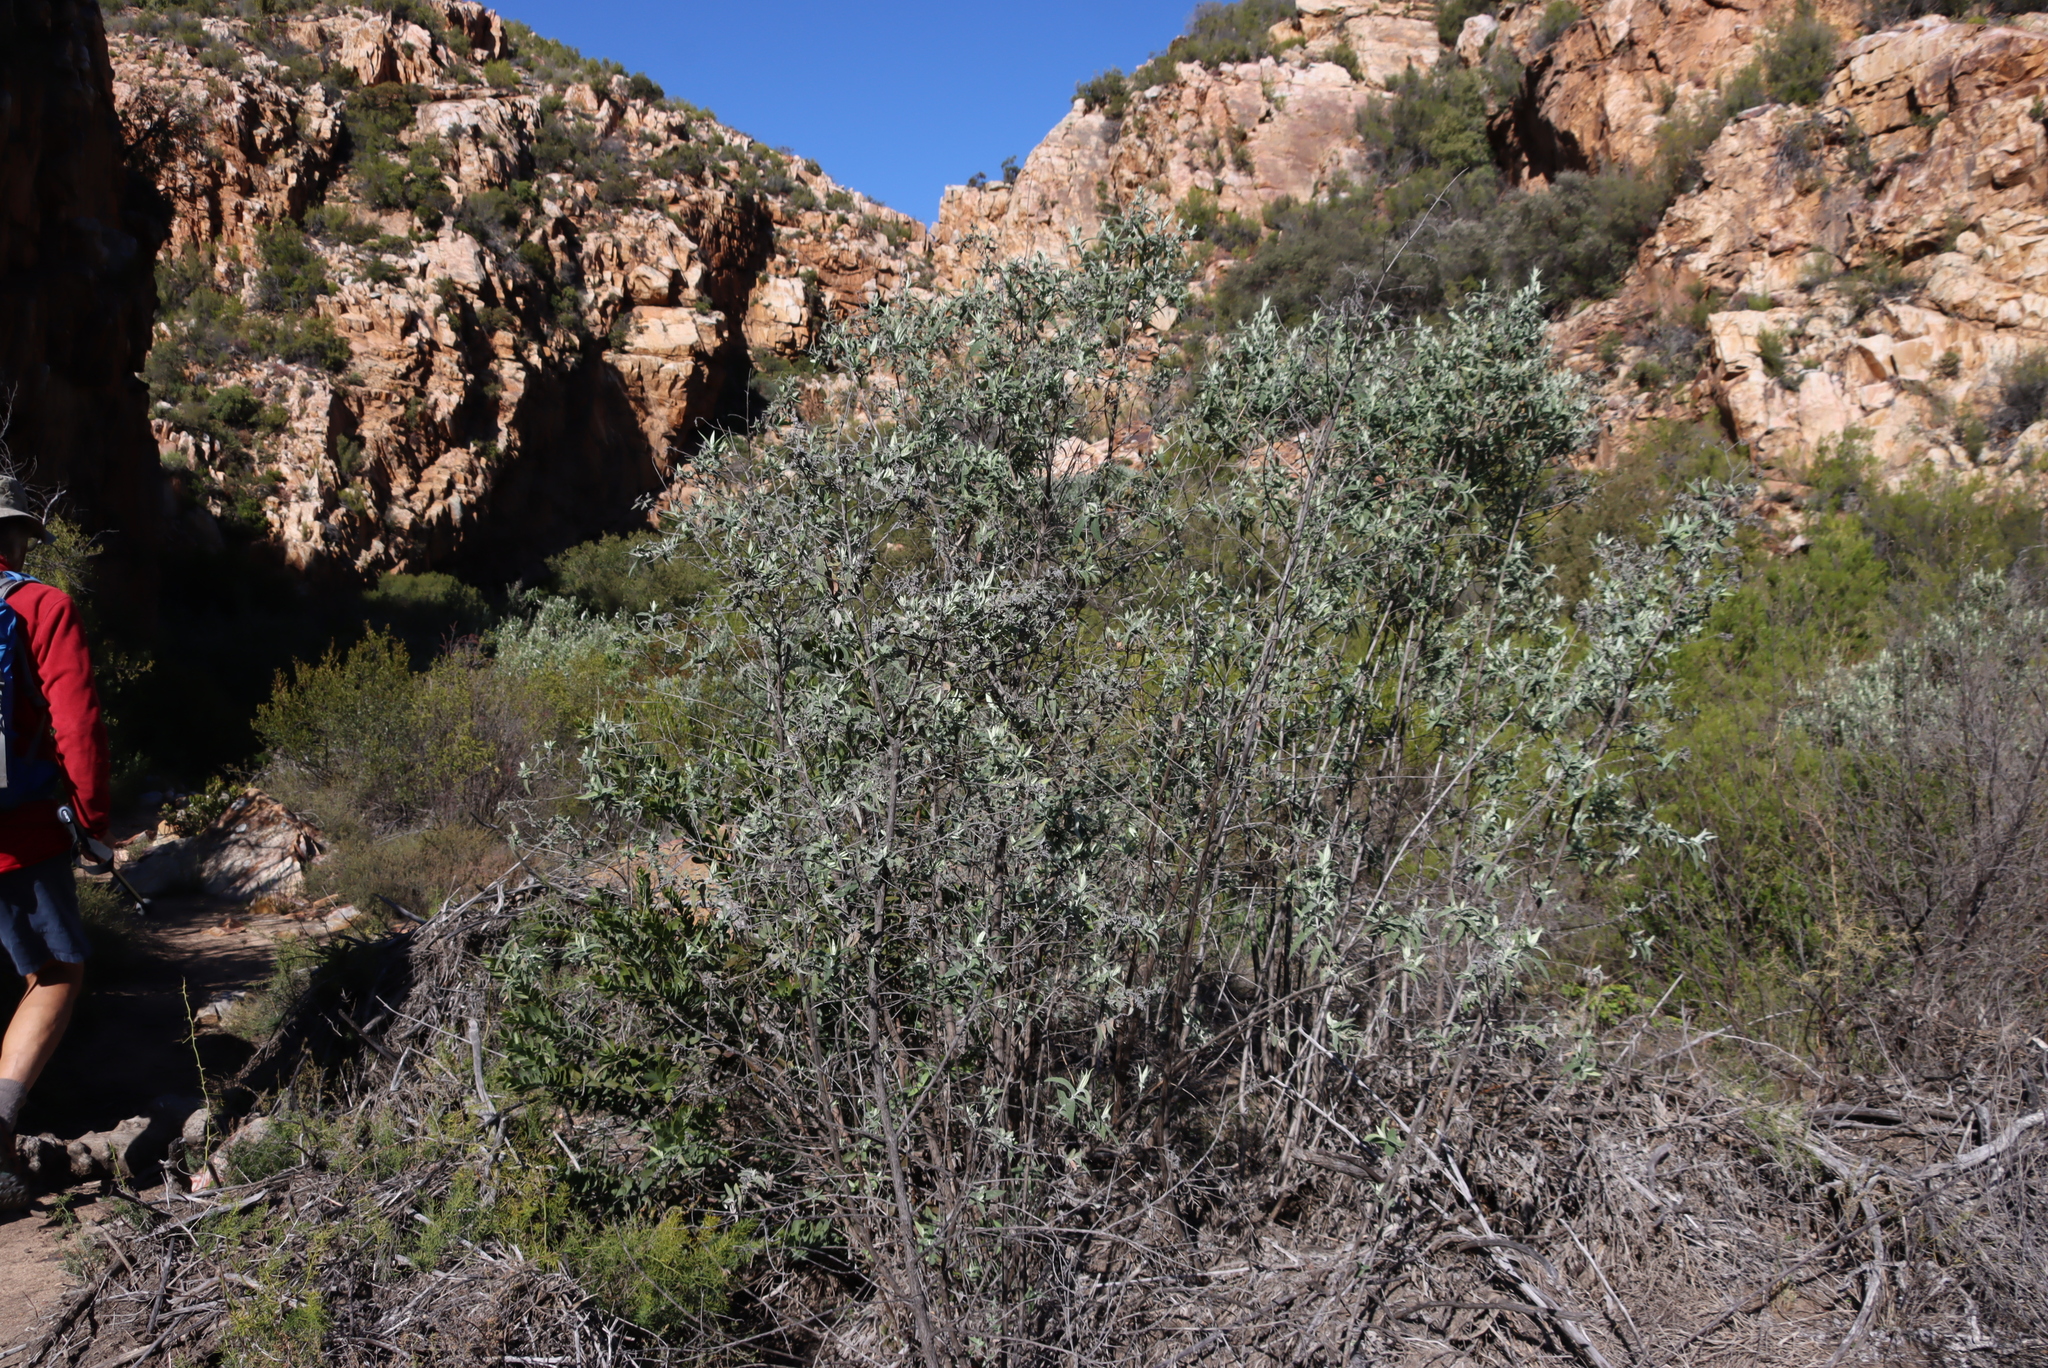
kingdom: Plantae
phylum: Tracheophyta
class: Magnoliopsida
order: Lamiales
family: Scrophulariaceae
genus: Buddleja
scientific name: Buddleja salviifolia
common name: Sagewood
